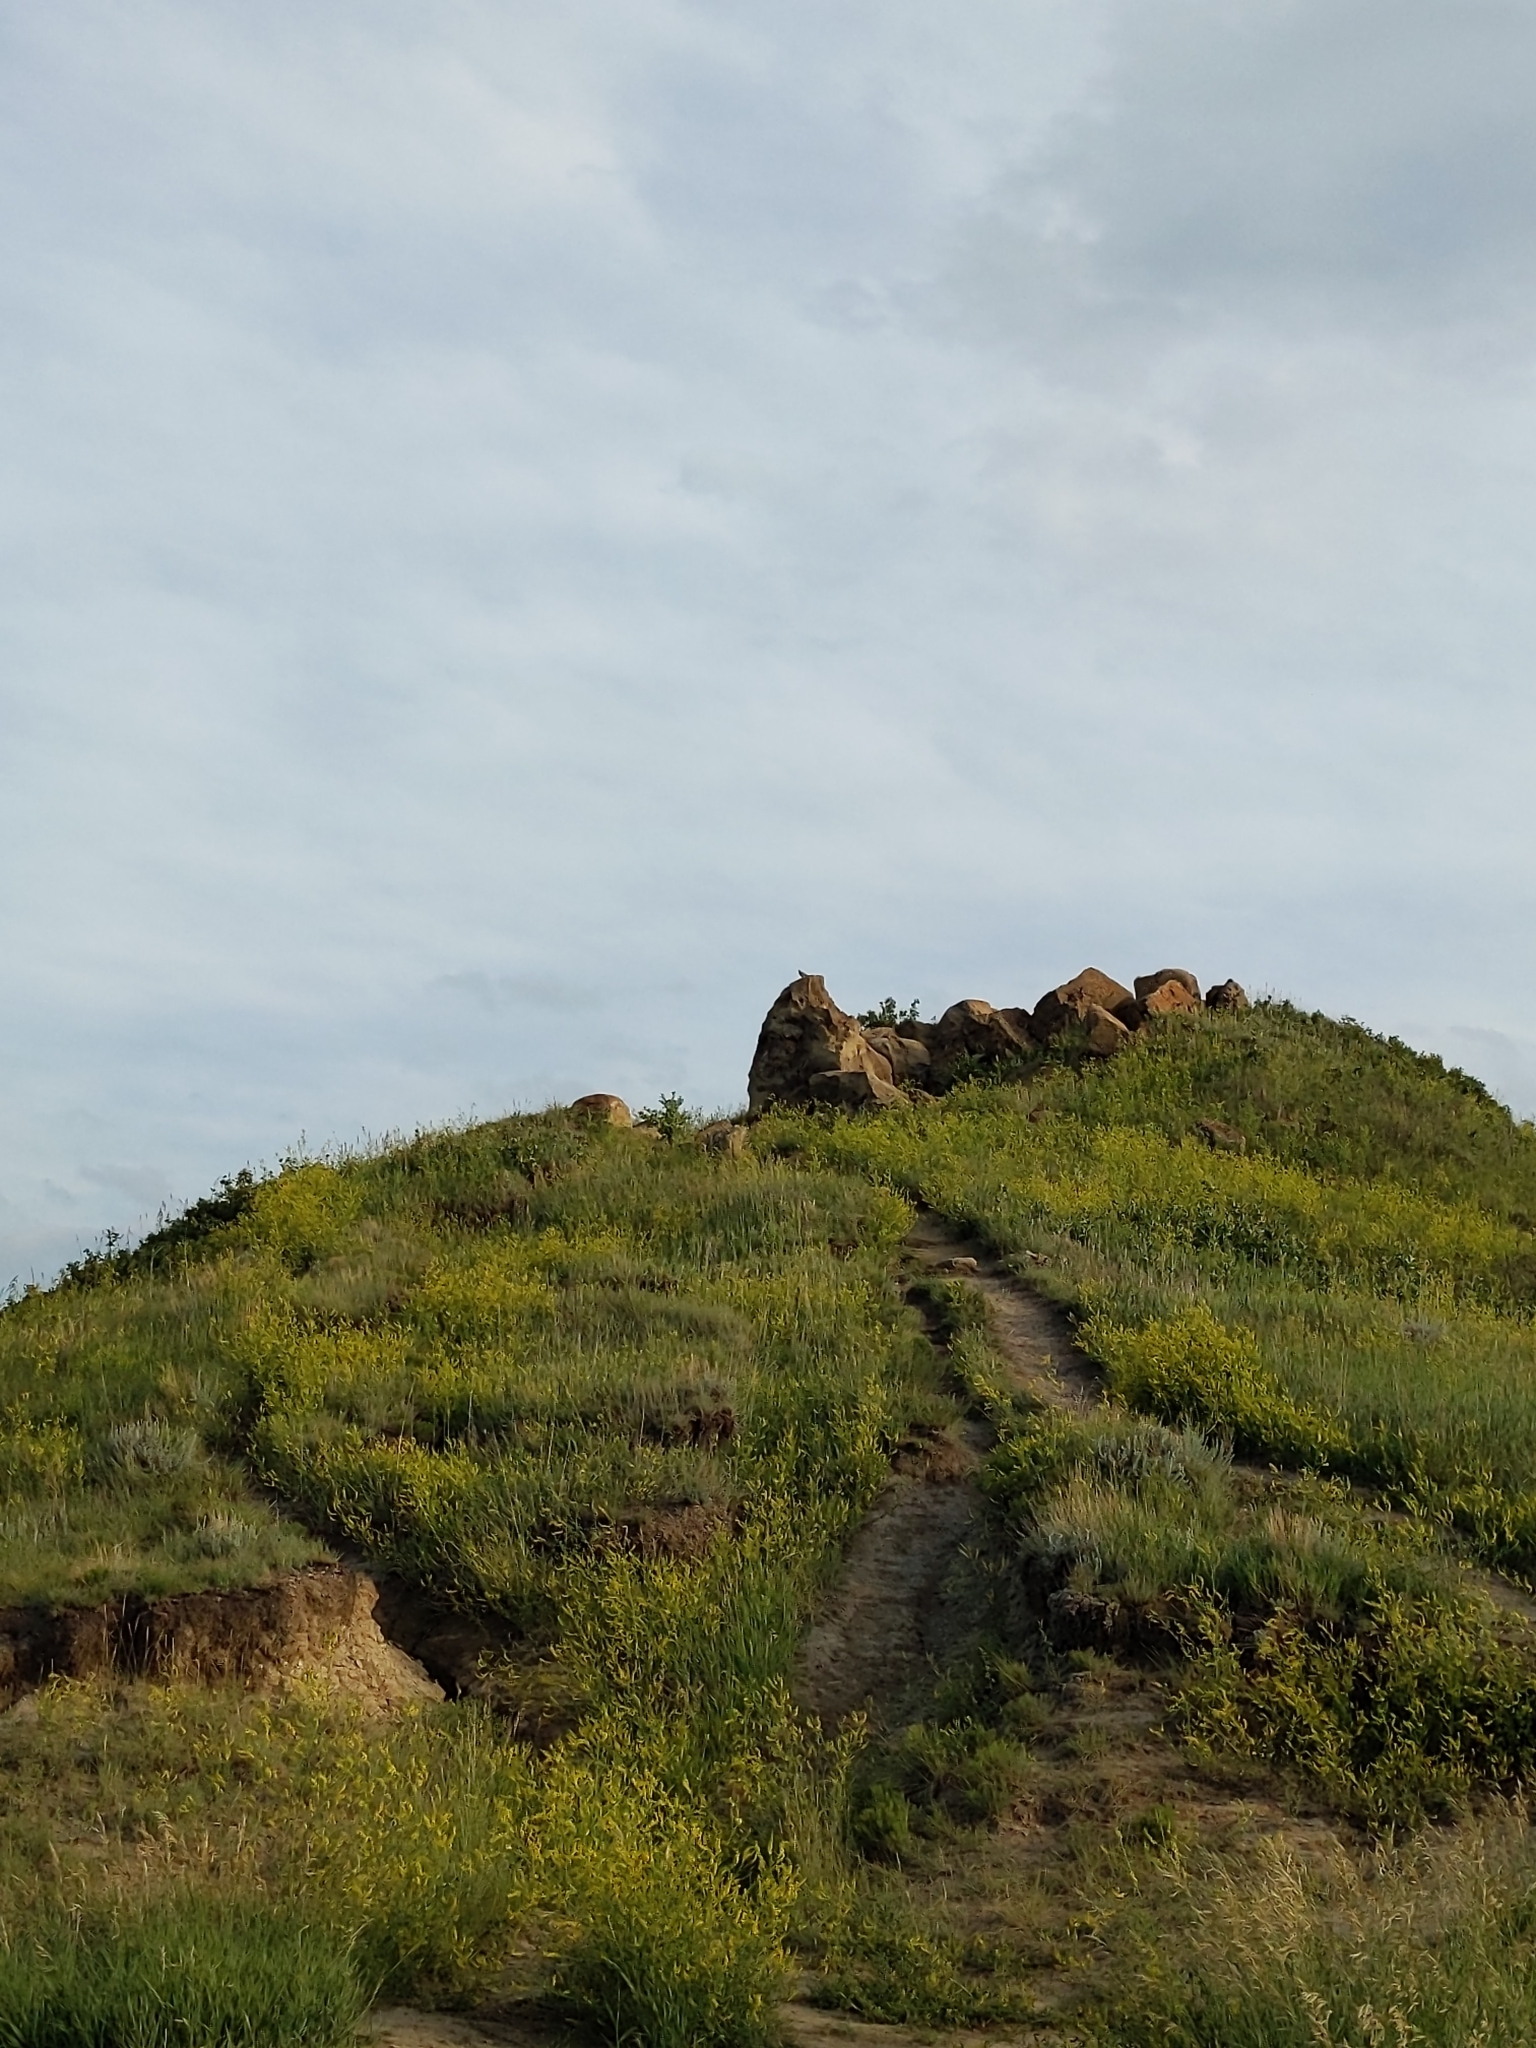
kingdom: Animalia
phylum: Chordata
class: Aves
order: Columbiformes
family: Columbidae
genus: Zenaida
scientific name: Zenaida macroura
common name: Mourning dove
